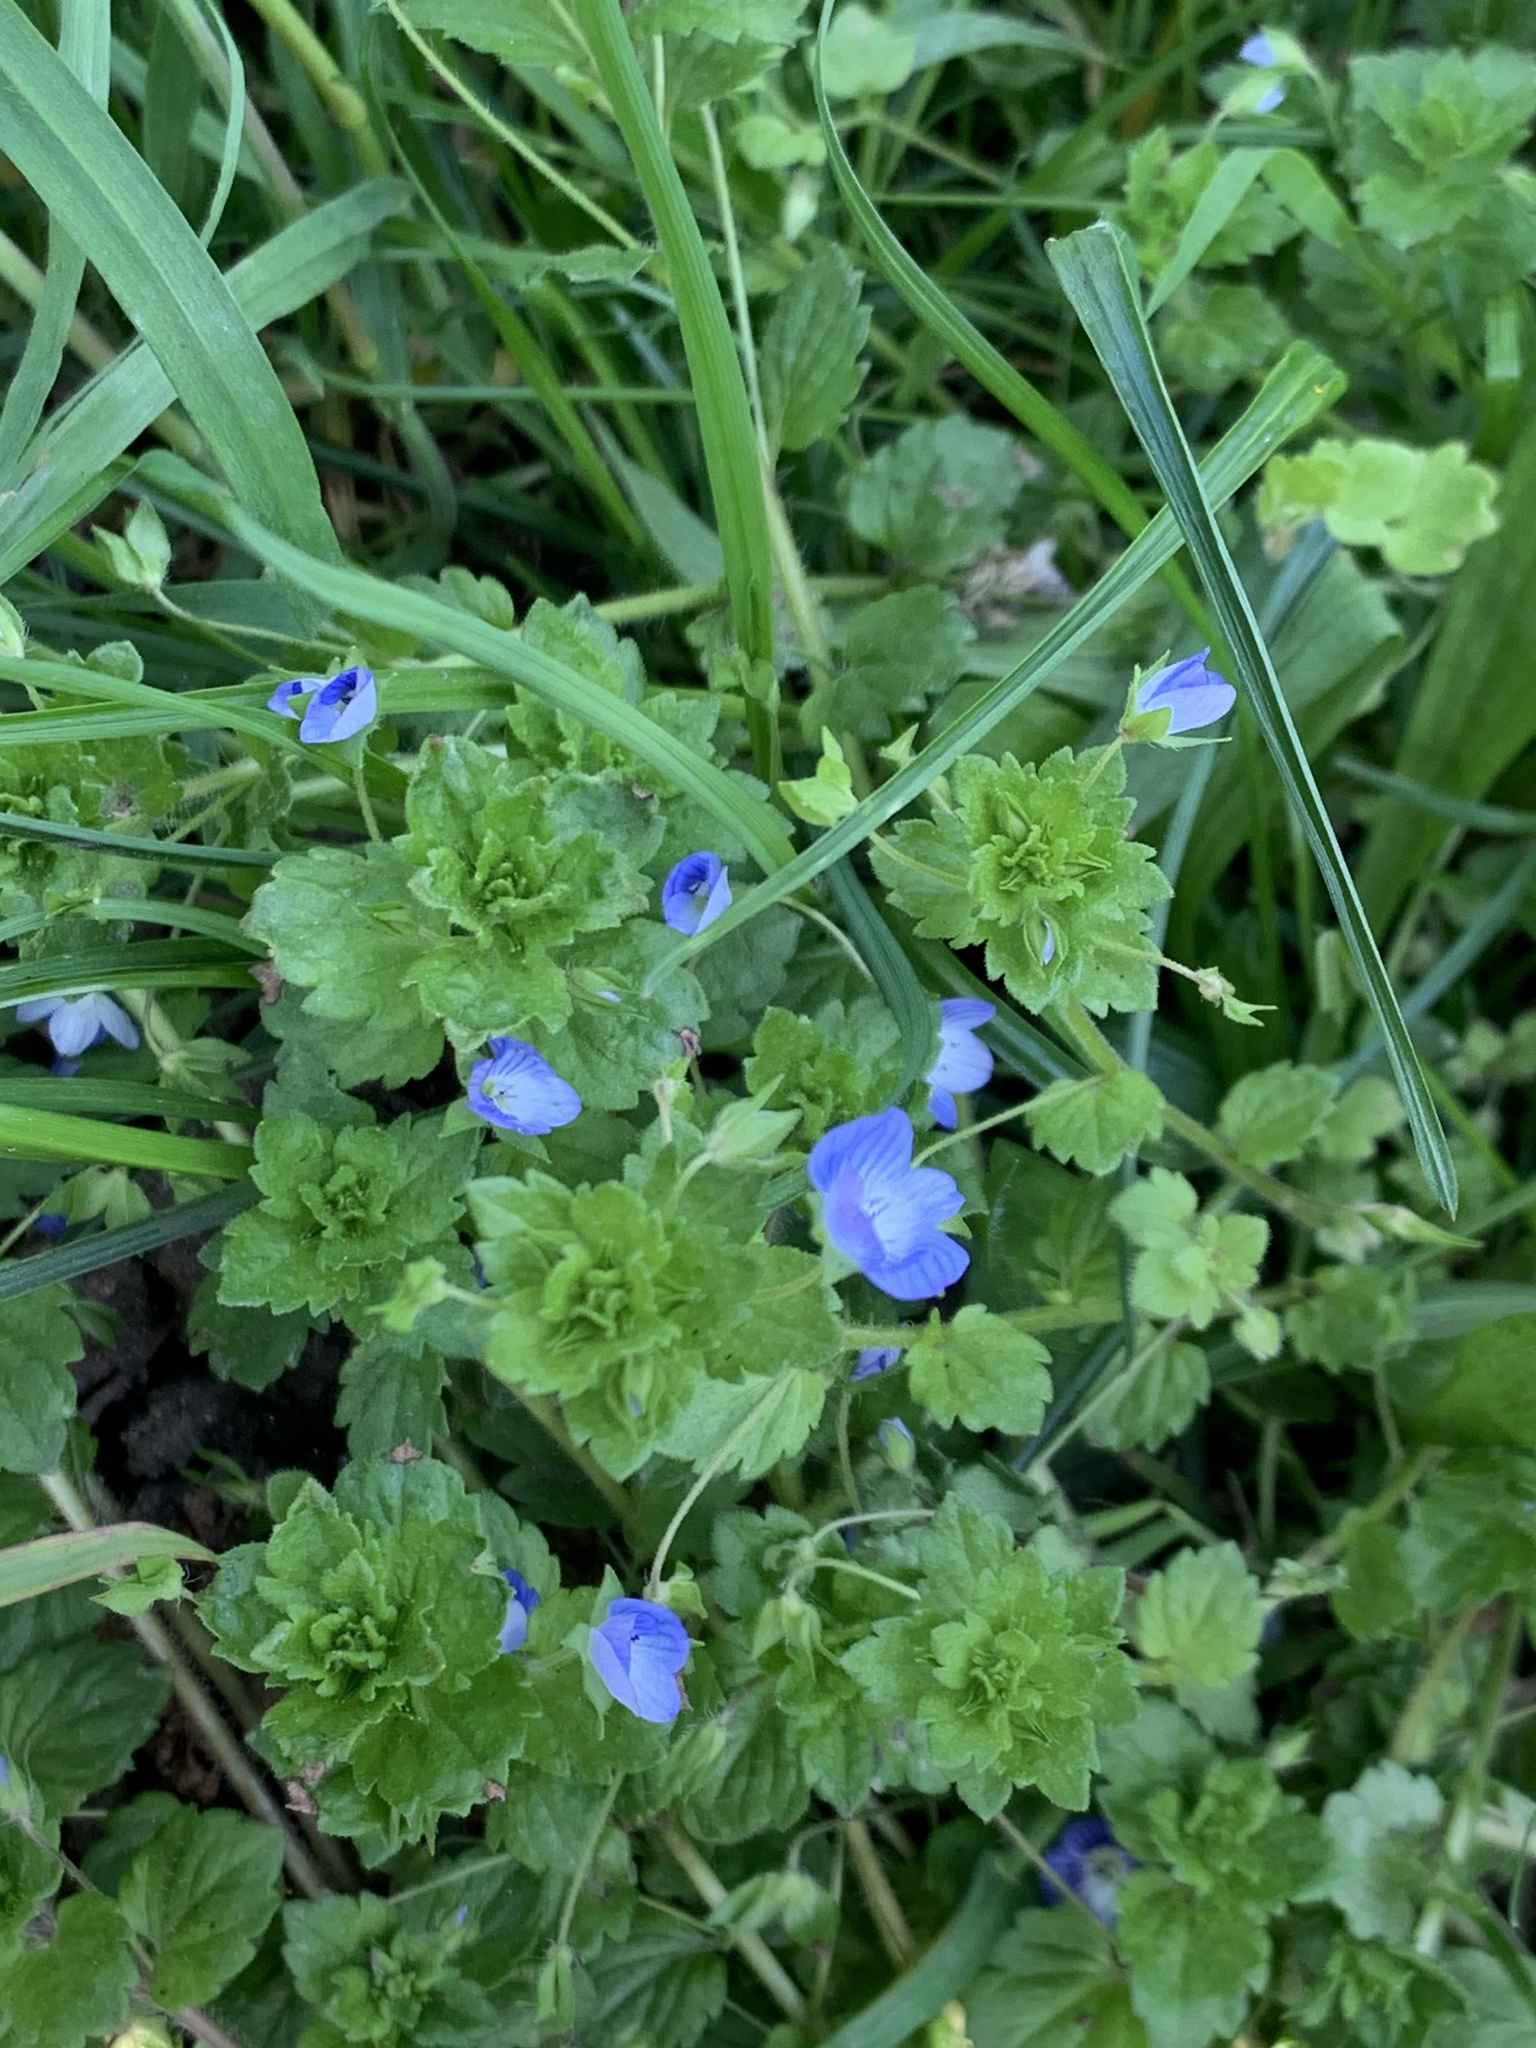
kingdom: Plantae
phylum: Tracheophyta
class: Magnoliopsida
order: Lamiales
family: Plantaginaceae
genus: Veronica
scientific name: Veronica persica
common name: Common field-speedwell
